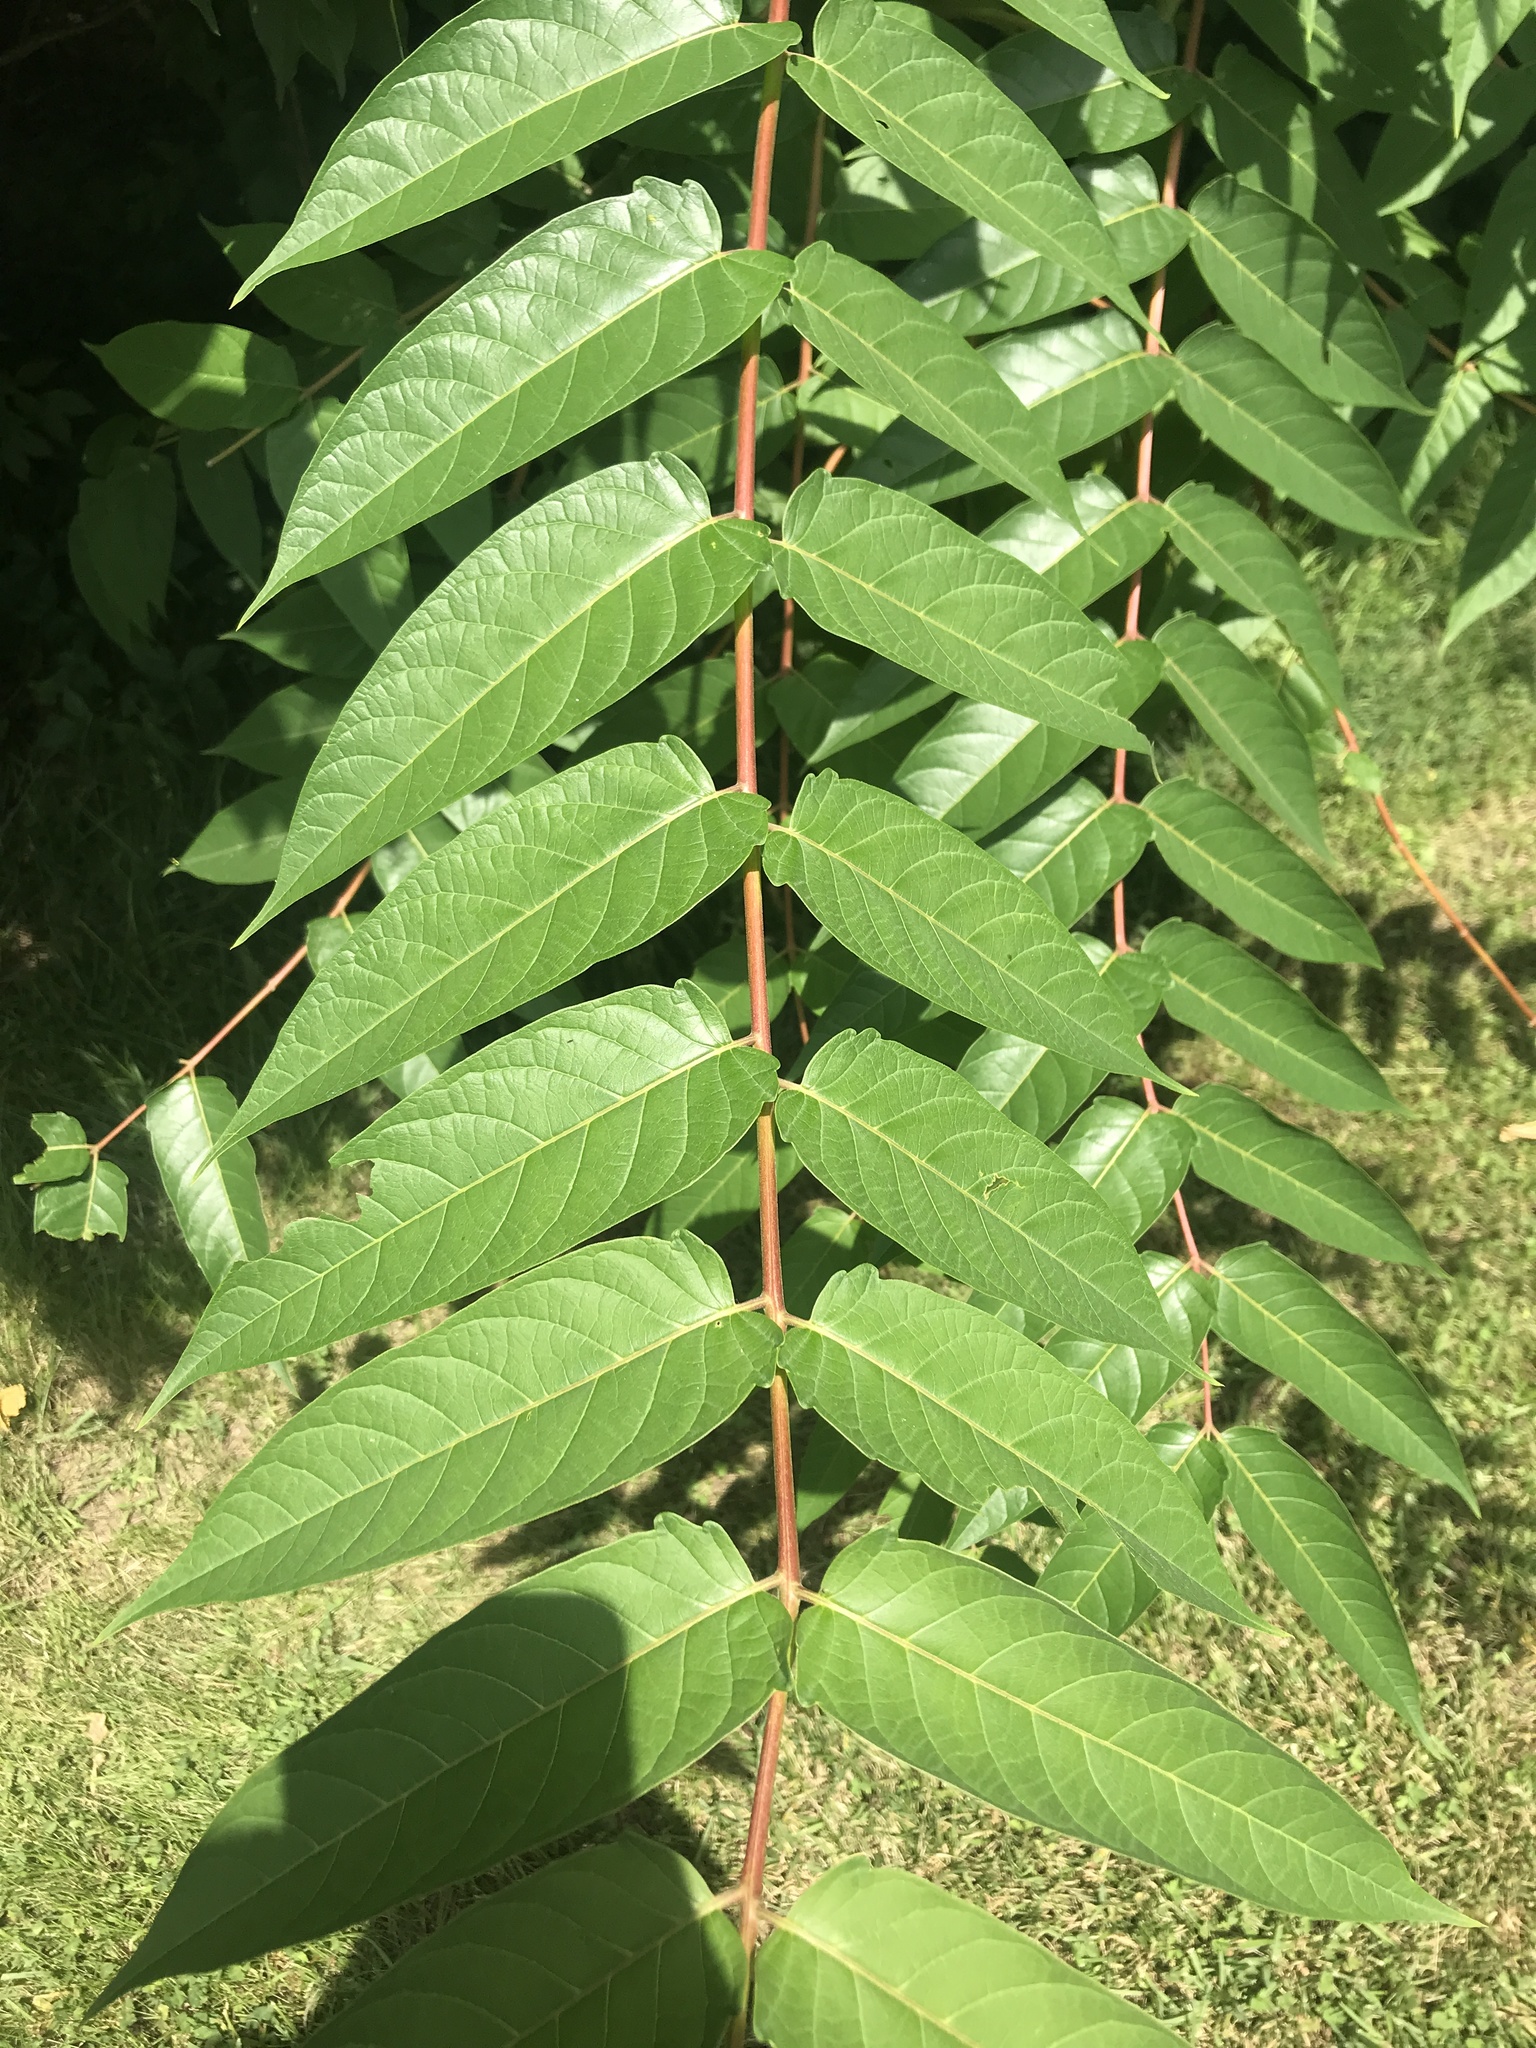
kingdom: Plantae
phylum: Tracheophyta
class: Magnoliopsida
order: Sapindales
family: Simaroubaceae
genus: Ailanthus
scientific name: Ailanthus altissima
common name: Tree-of-heaven
